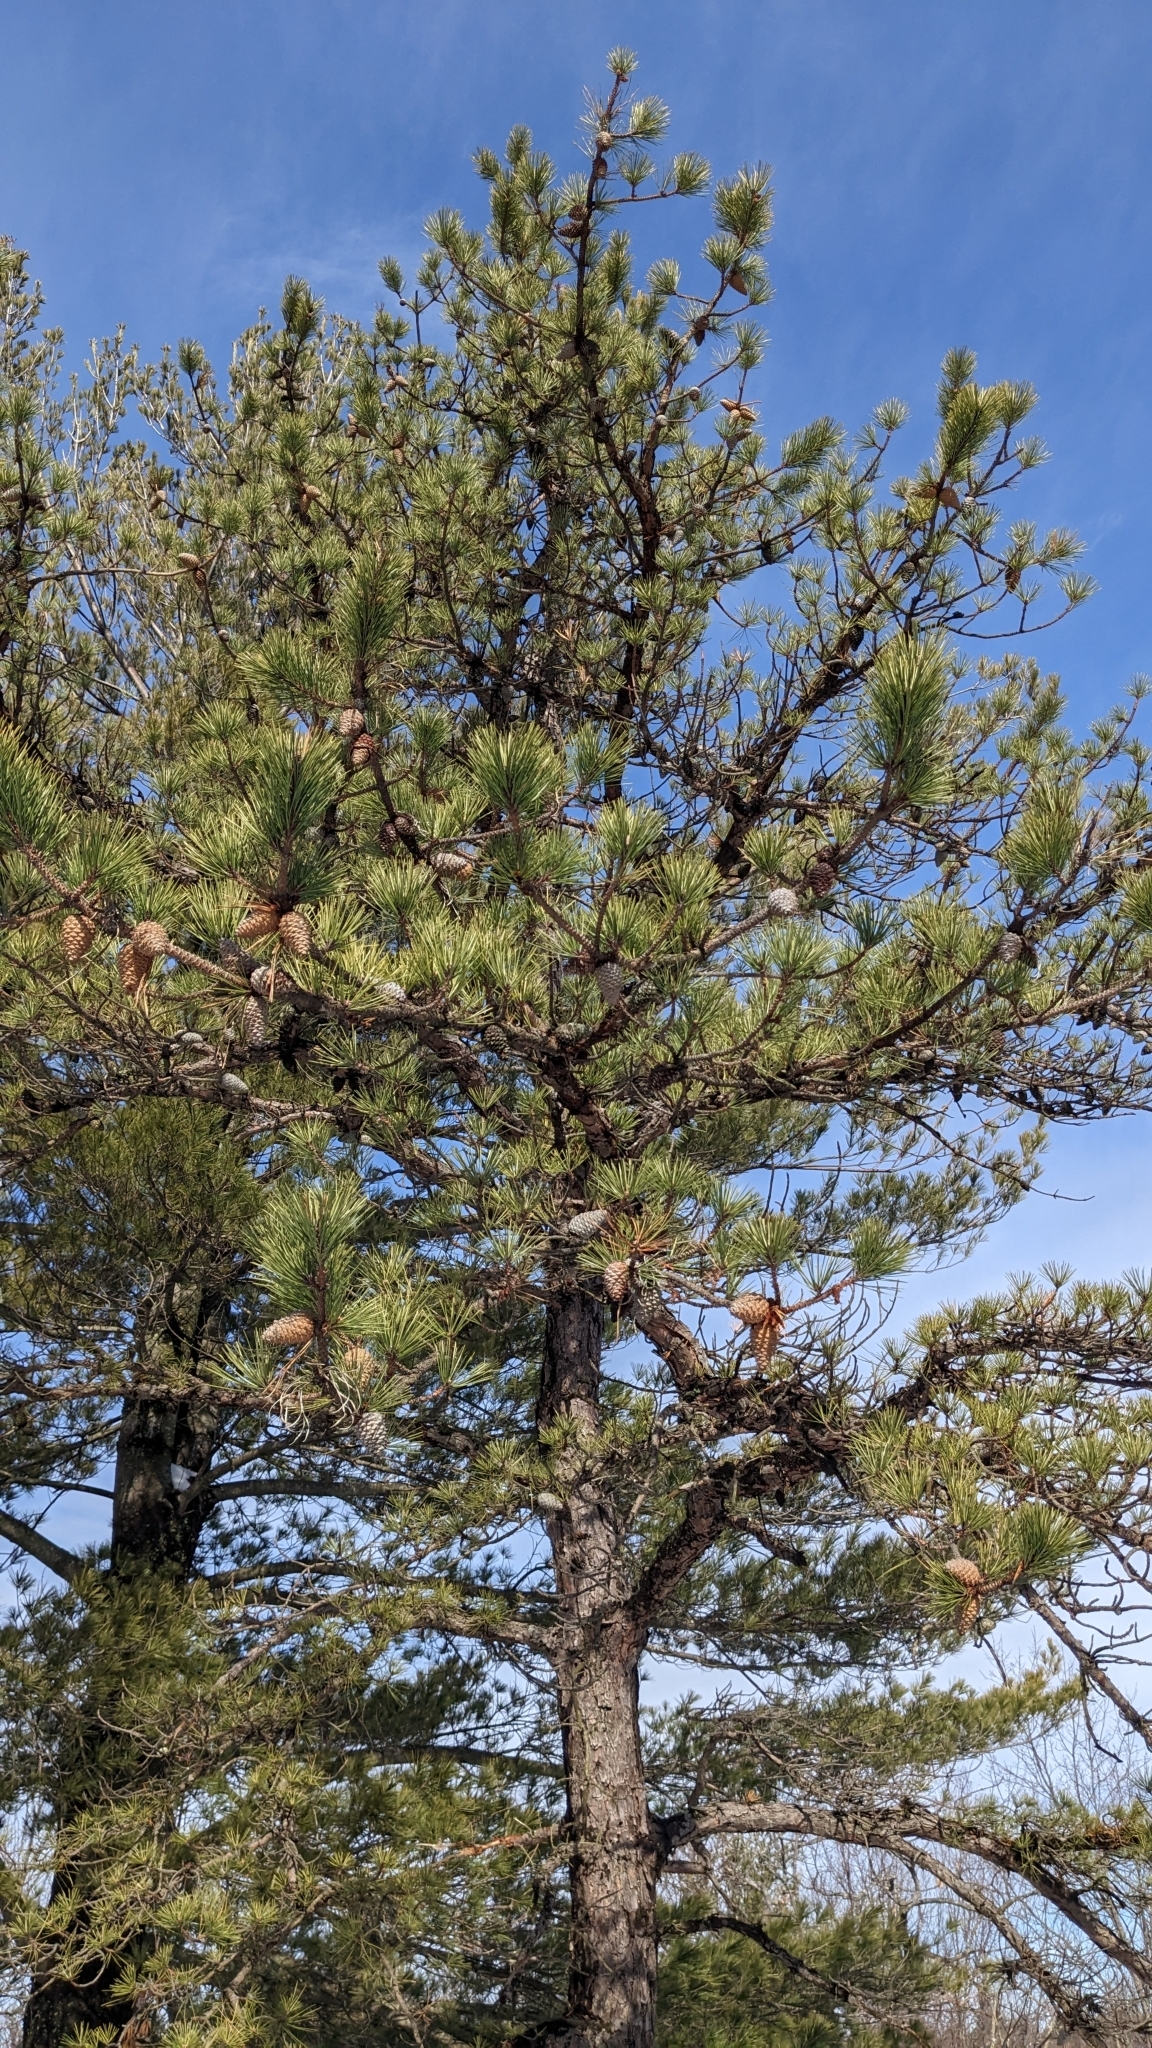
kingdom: Plantae
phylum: Tracheophyta
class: Pinopsida
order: Pinales
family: Pinaceae
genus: Pinus
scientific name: Pinus rigida
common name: Pitch pine
